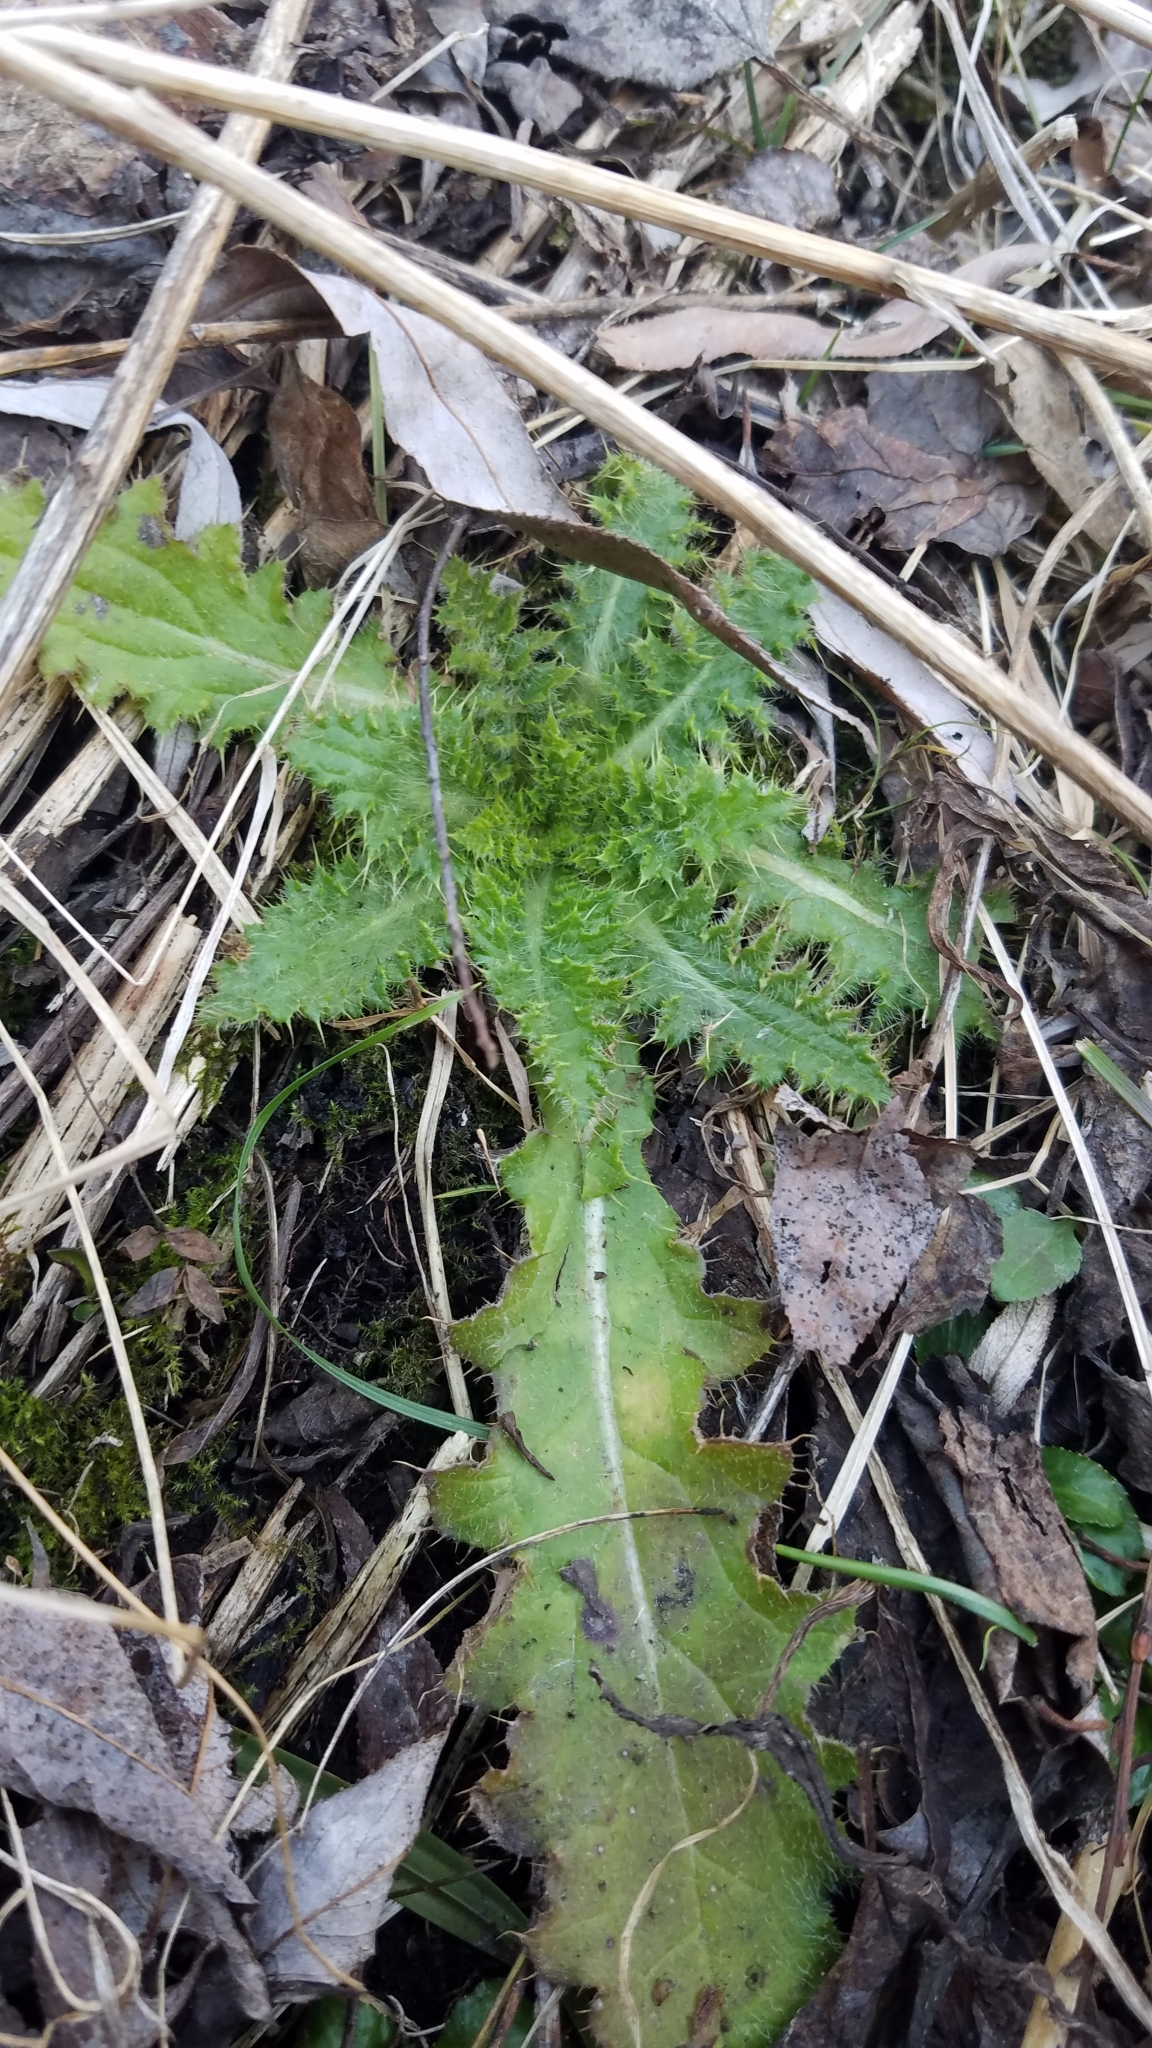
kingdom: Plantae
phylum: Tracheophyta
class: Magnoliopsida
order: Asterales
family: Asteraceae
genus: Cirsium
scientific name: Cirsium vulgare
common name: Bull thistle
